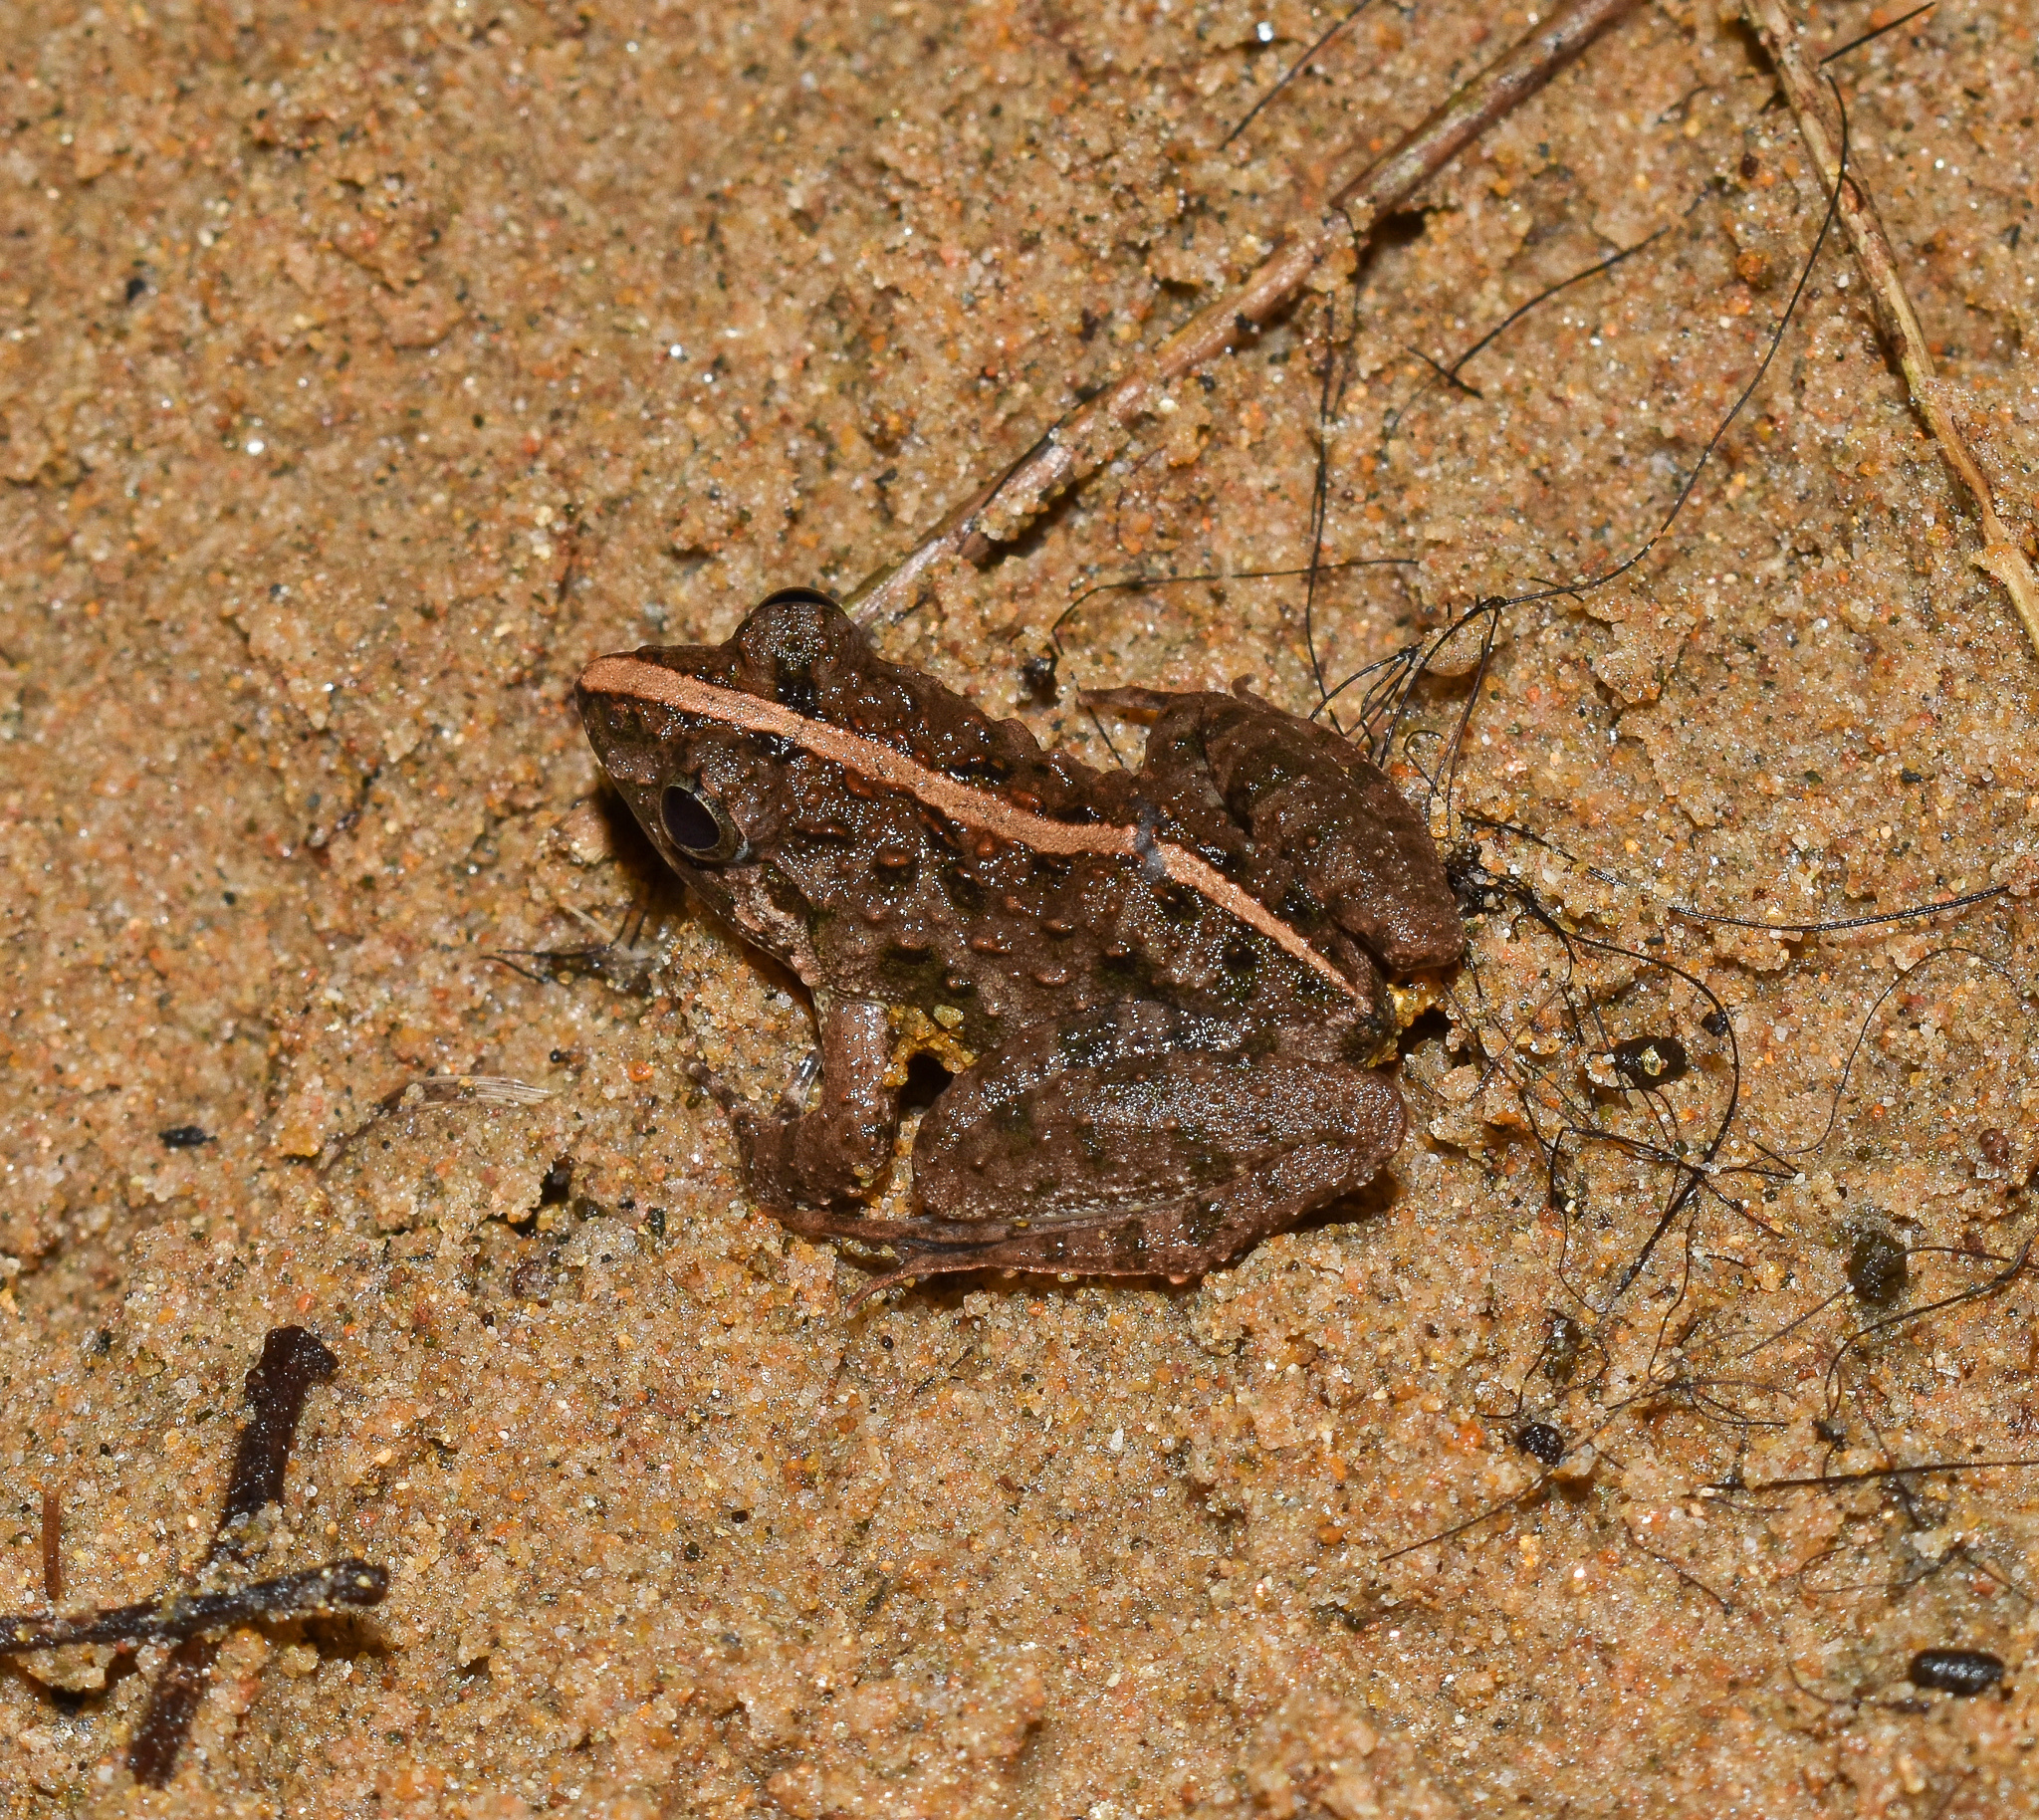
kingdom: Animalia
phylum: Chordata
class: Amphibia
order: Anura
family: Dicroglossidae
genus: Fejervarya
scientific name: Fejervarya limnocharis
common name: Asian grass frog/common pond frog/field frog/grass frog/indian rice frog
